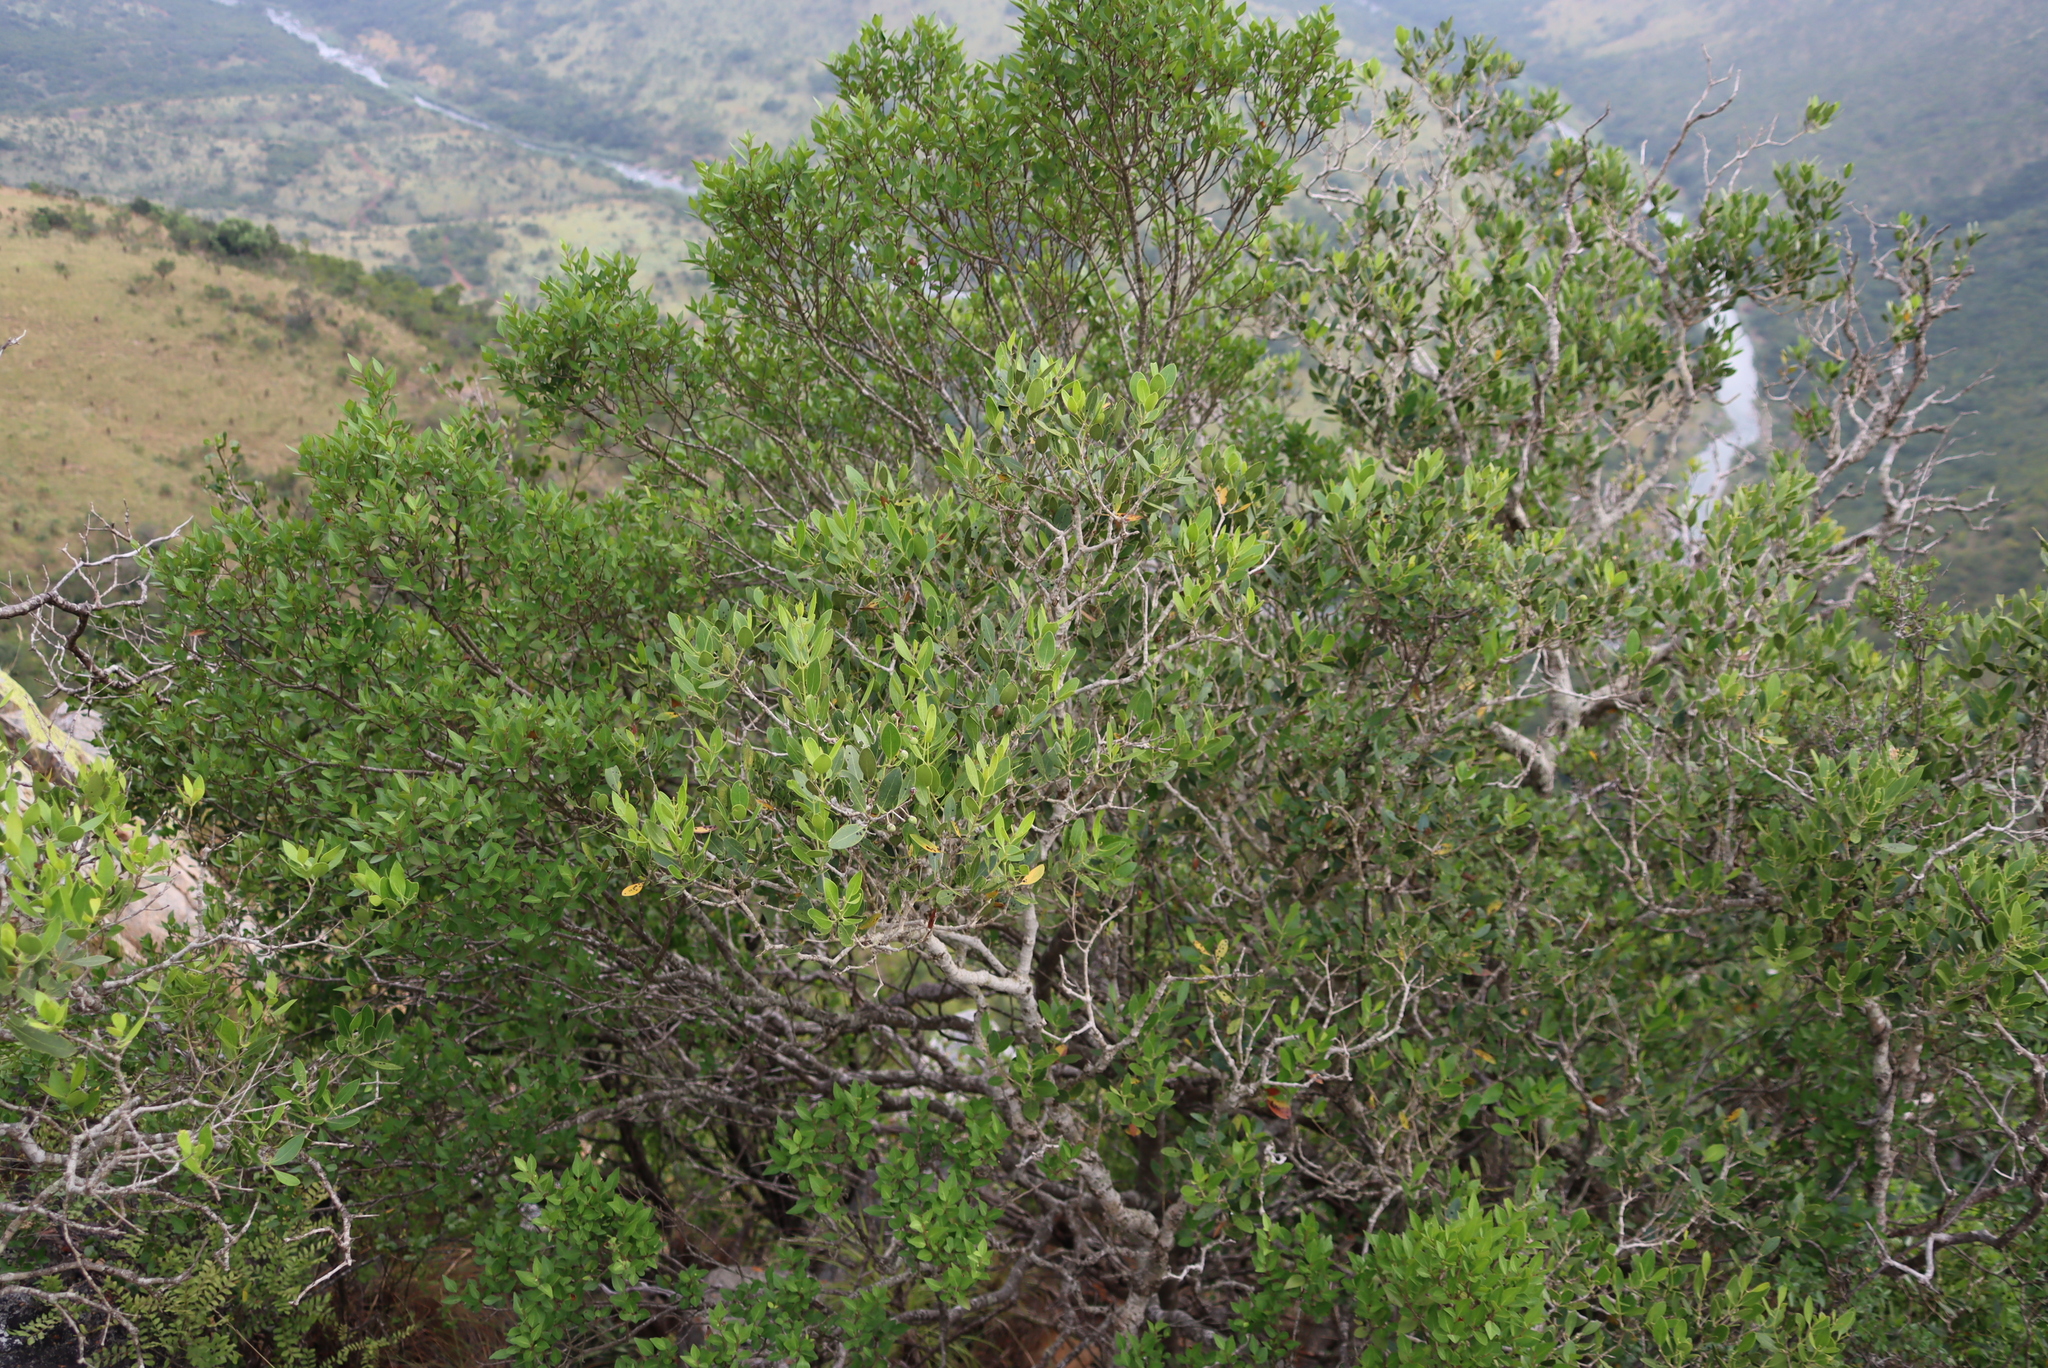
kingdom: Plantae
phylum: Tracheophyta
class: Magnoliopsida
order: Lamiales
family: Oleaceae
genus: Olea
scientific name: Olea capensis
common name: Black ironwood
